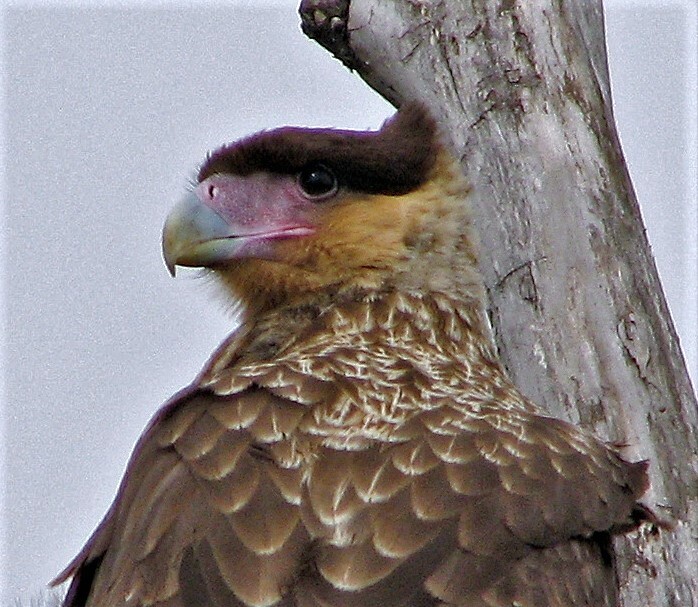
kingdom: Animalia
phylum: Chordata
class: Aves
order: Falconiformes
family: Falconidae
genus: Caracara
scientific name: Caracara plancus
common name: Southern caracara
